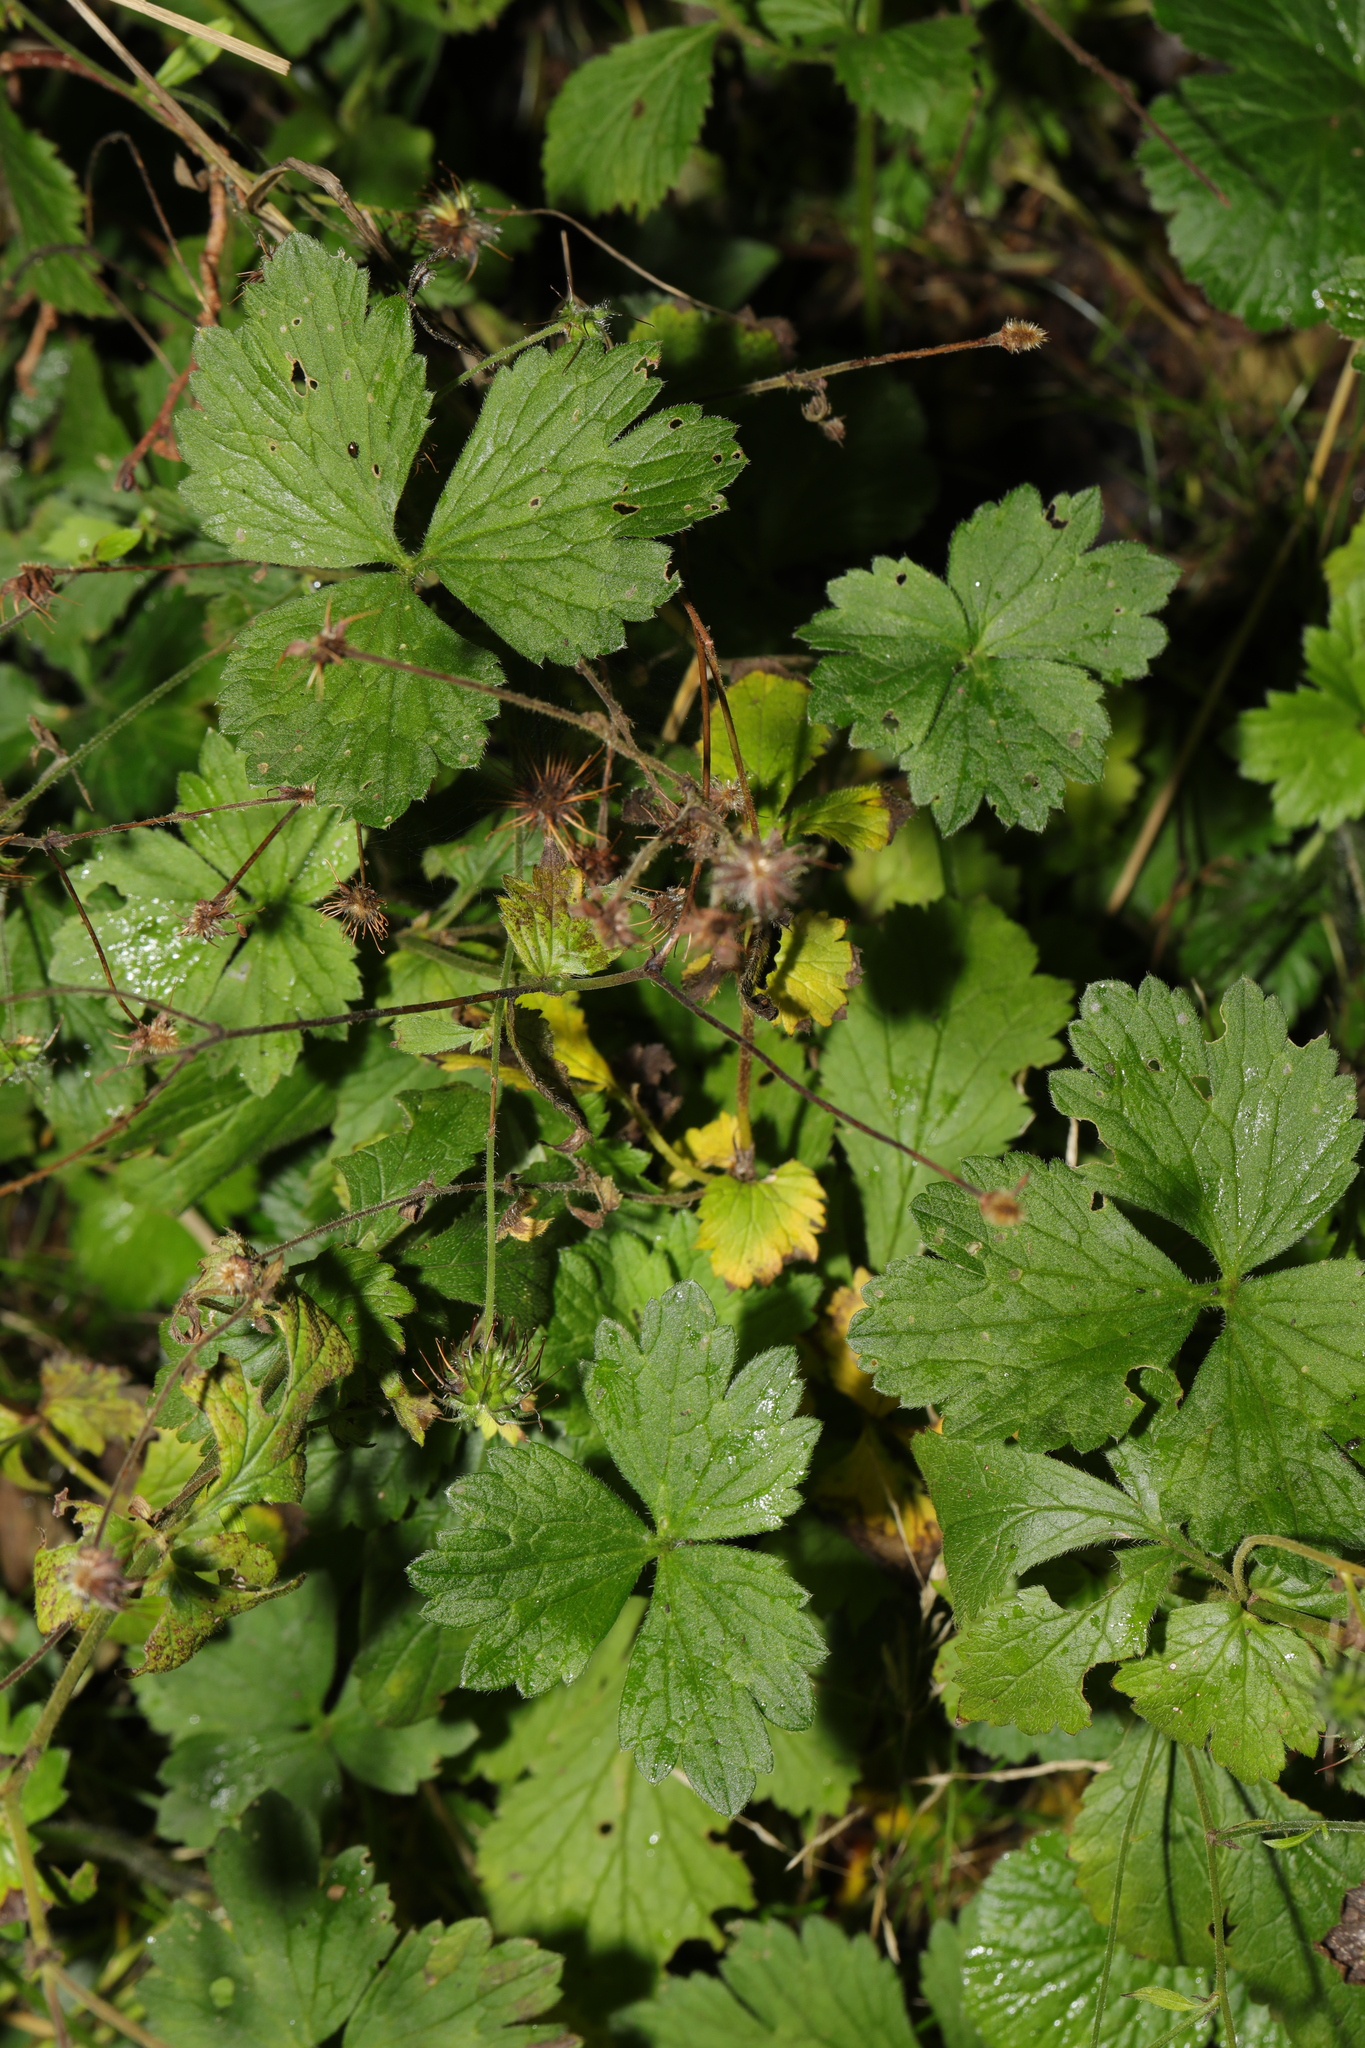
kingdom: Plantae
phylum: Tracheophyta
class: Magnoliopsida
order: Rosales
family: Rosaceae
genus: Geum
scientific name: Geum urbanum
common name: Wood avens
